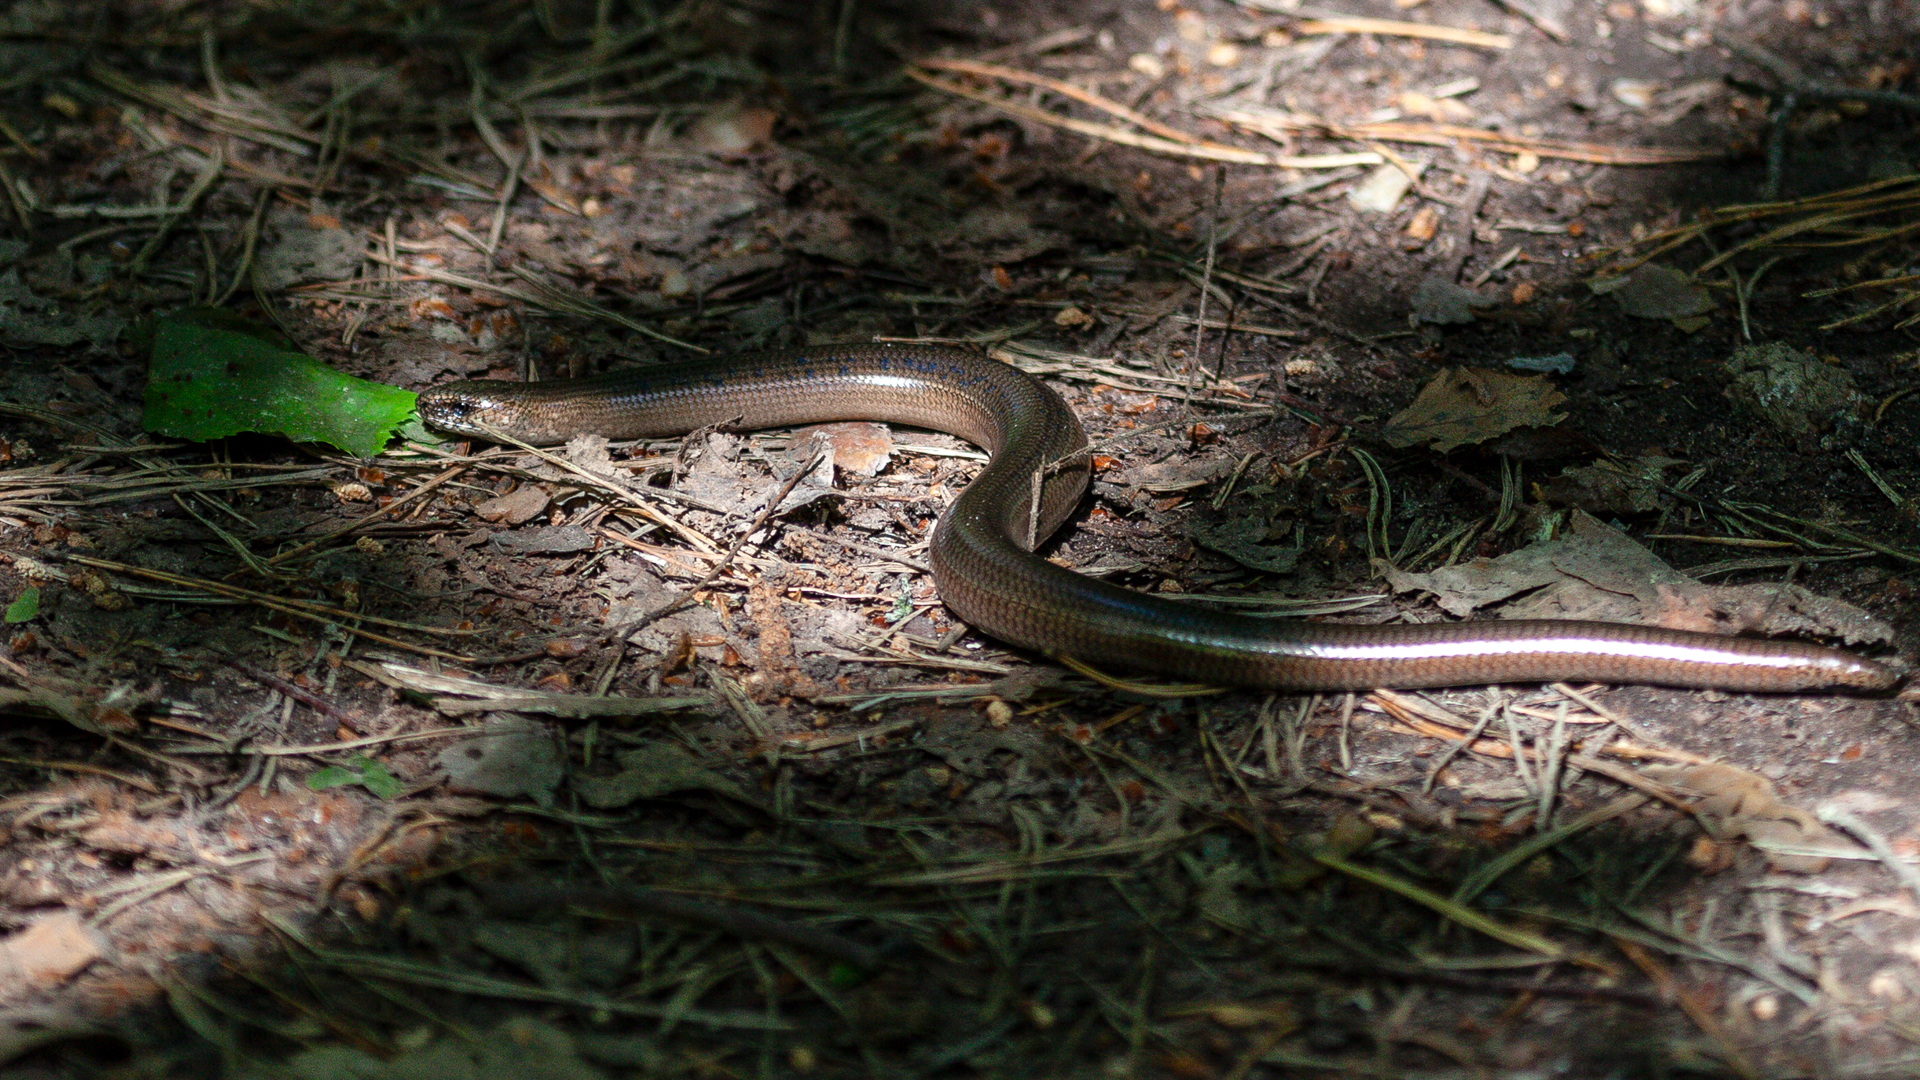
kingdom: Animalia
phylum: Chordata
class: Squamata
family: Anguidae
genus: Anguis
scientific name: Anguis colchica
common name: Slow worm
